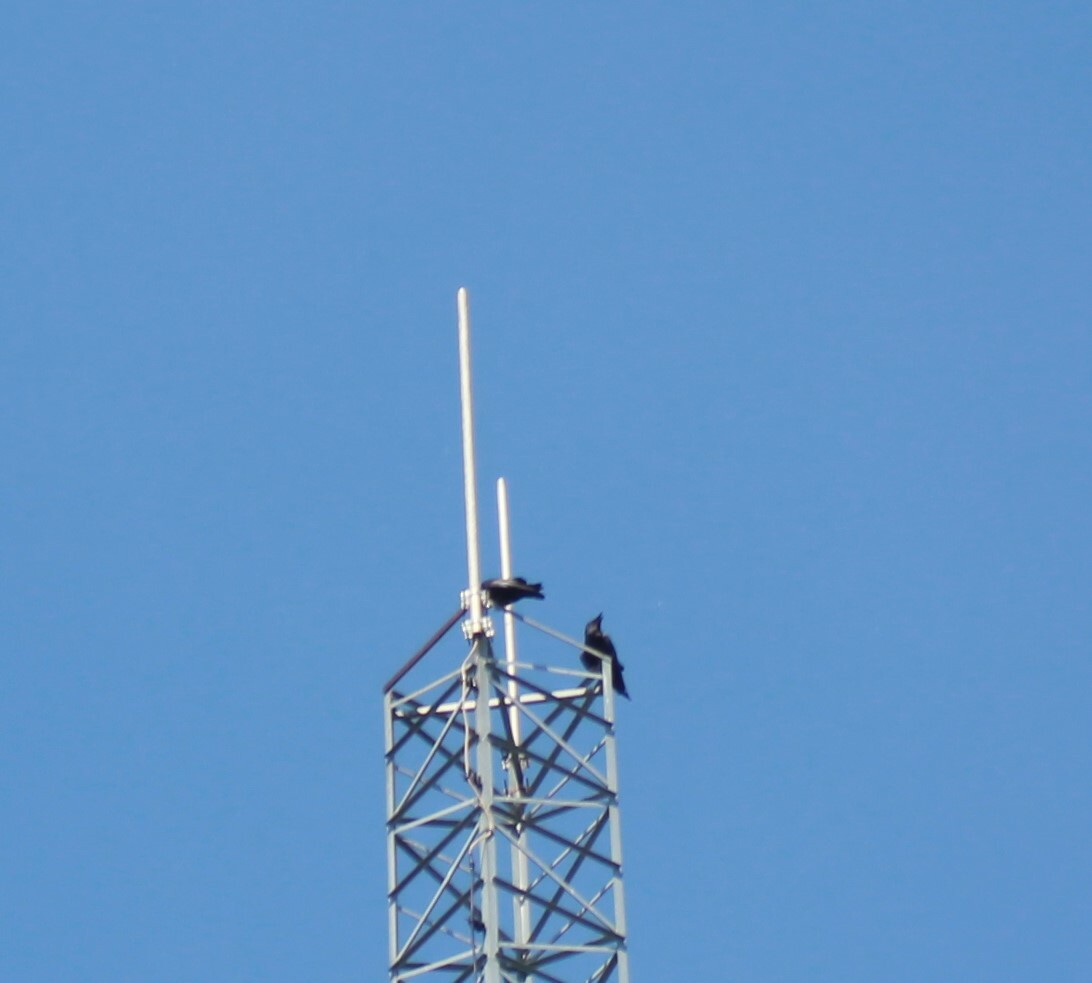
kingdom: Animalia
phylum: Chordata
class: Aves
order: Passeriformes
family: Corvidae
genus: Corvus
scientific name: Corvus corax
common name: Common raven
